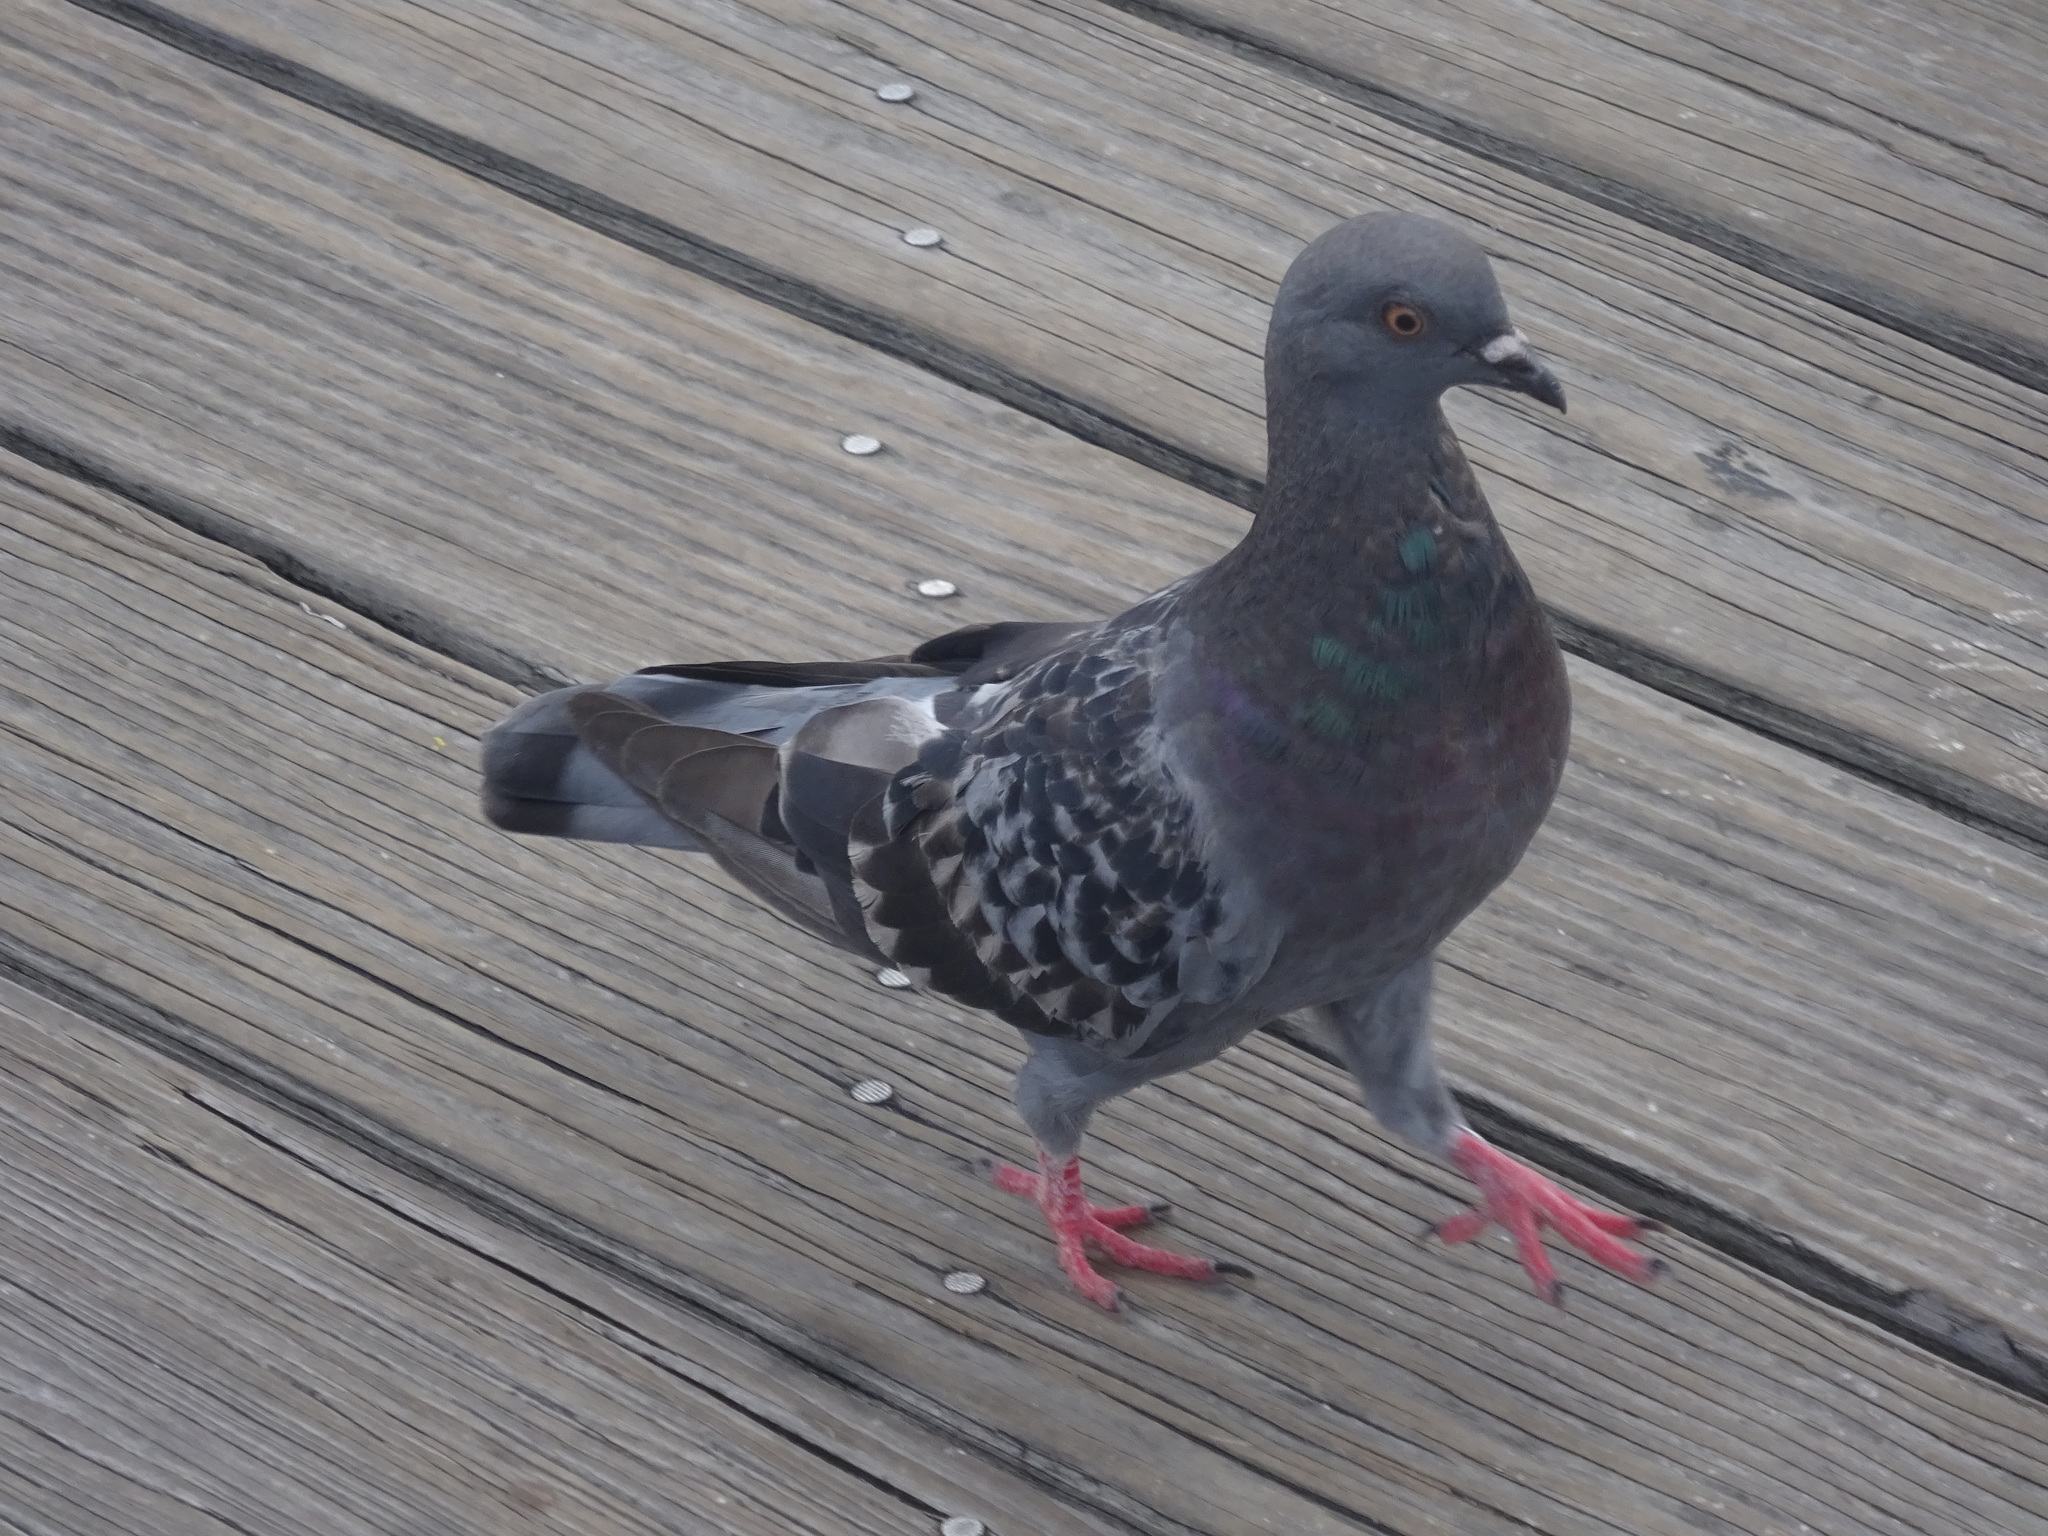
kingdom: Animalia
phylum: Chordata
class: Aves
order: Columbiformes
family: Columbidae
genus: Columba
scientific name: Columba livia
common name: Rock pigeon
